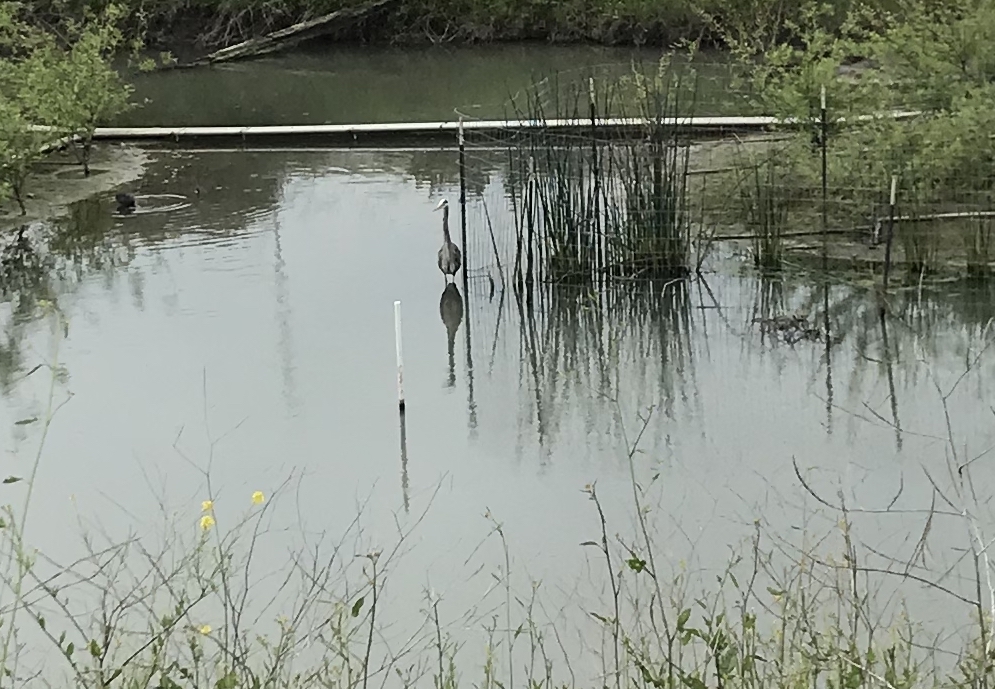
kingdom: Animalia
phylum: Chordata
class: Aves
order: Pelecaniformes
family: Ardeidae
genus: Ardea
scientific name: Ardea herodias
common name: Great blue heron
